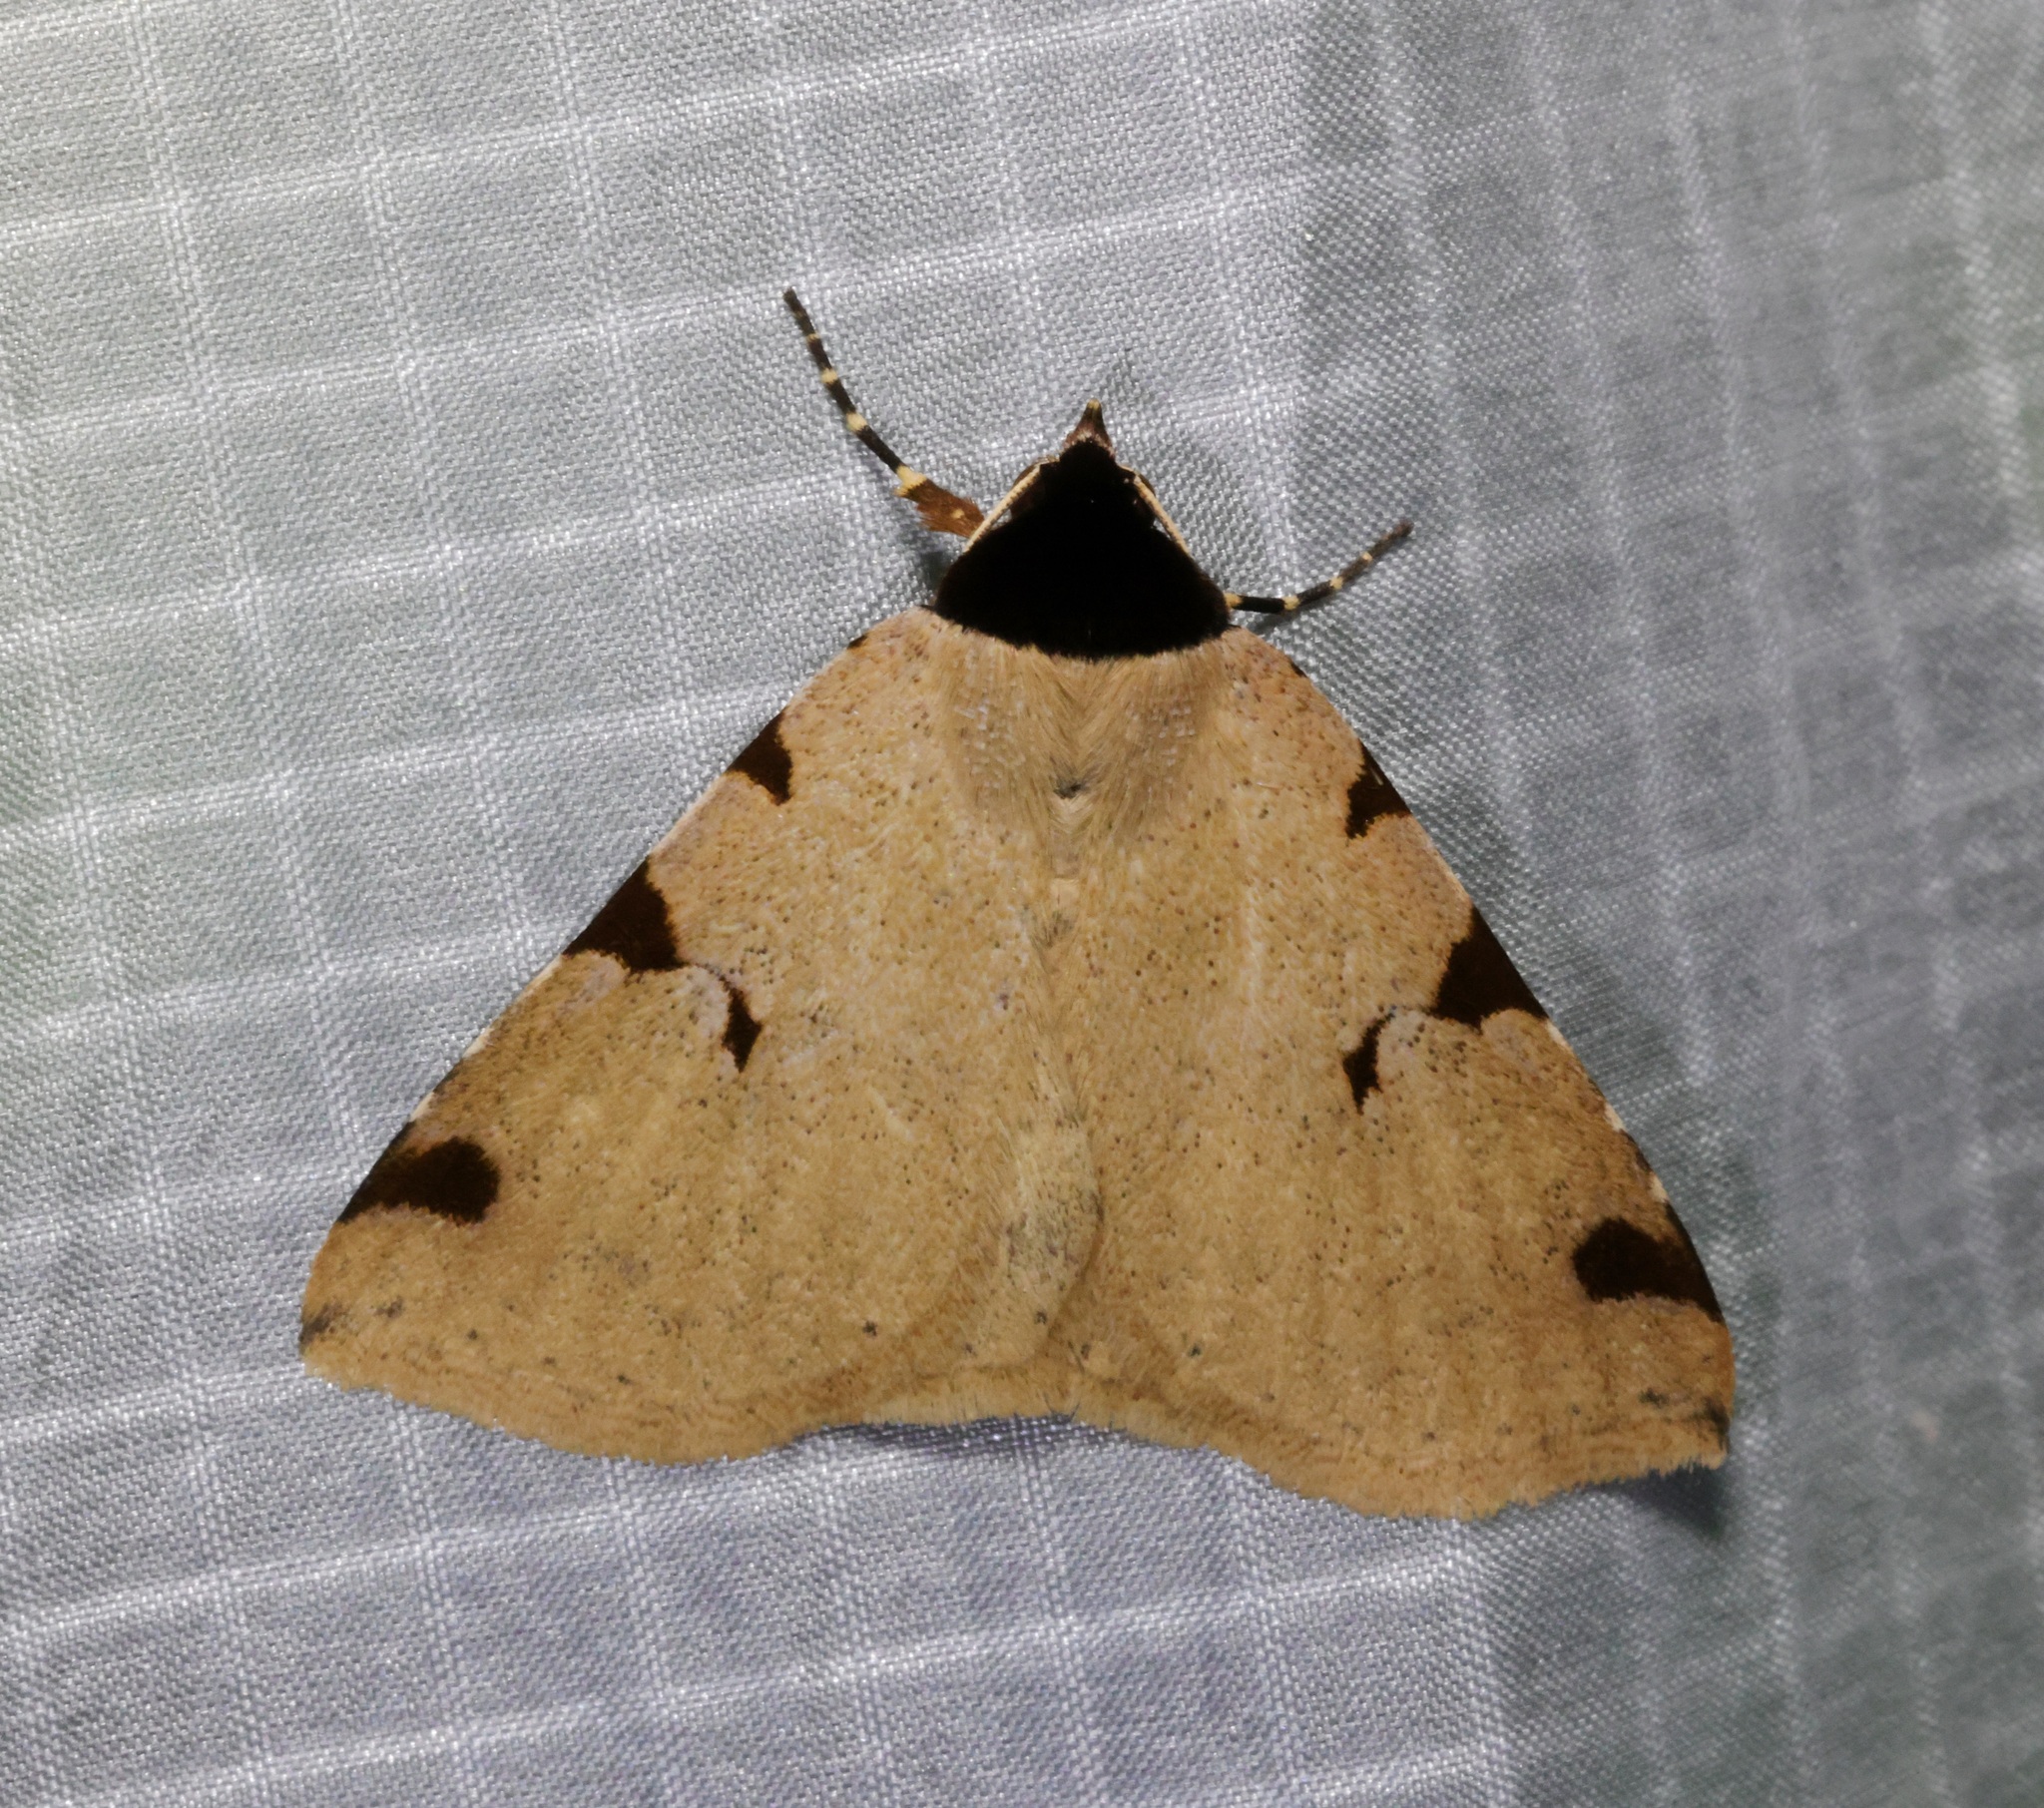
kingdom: Animalia
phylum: Arthropoda
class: Insecta
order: Lepidoptera
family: Erebidae
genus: Rema
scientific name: Rema costimacula
